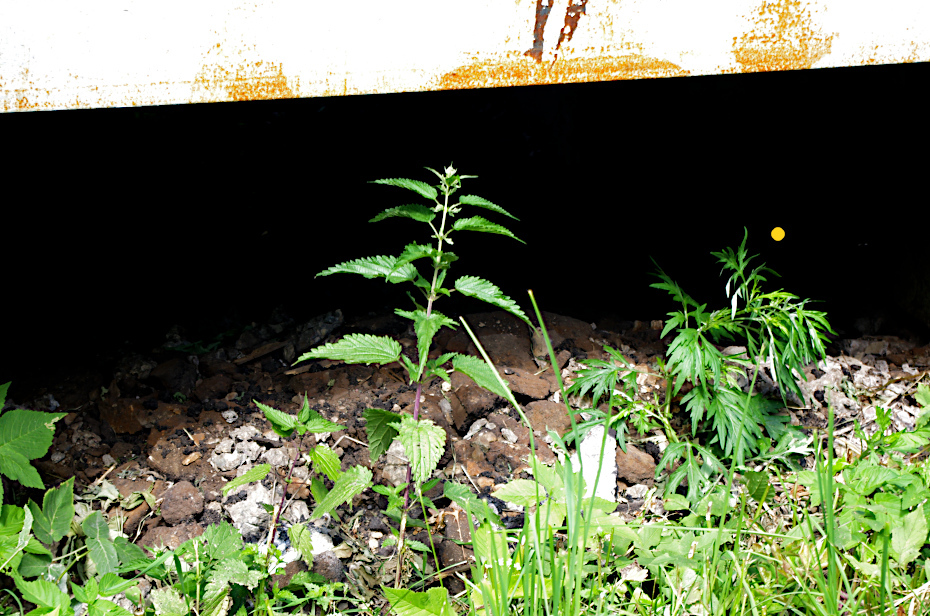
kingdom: Plantae
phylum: Tracheophyta
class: Magnoliopsida
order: Asterales
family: Asteraceae
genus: Artemisia
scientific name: Artemisia vulgaris
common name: Mugwort
